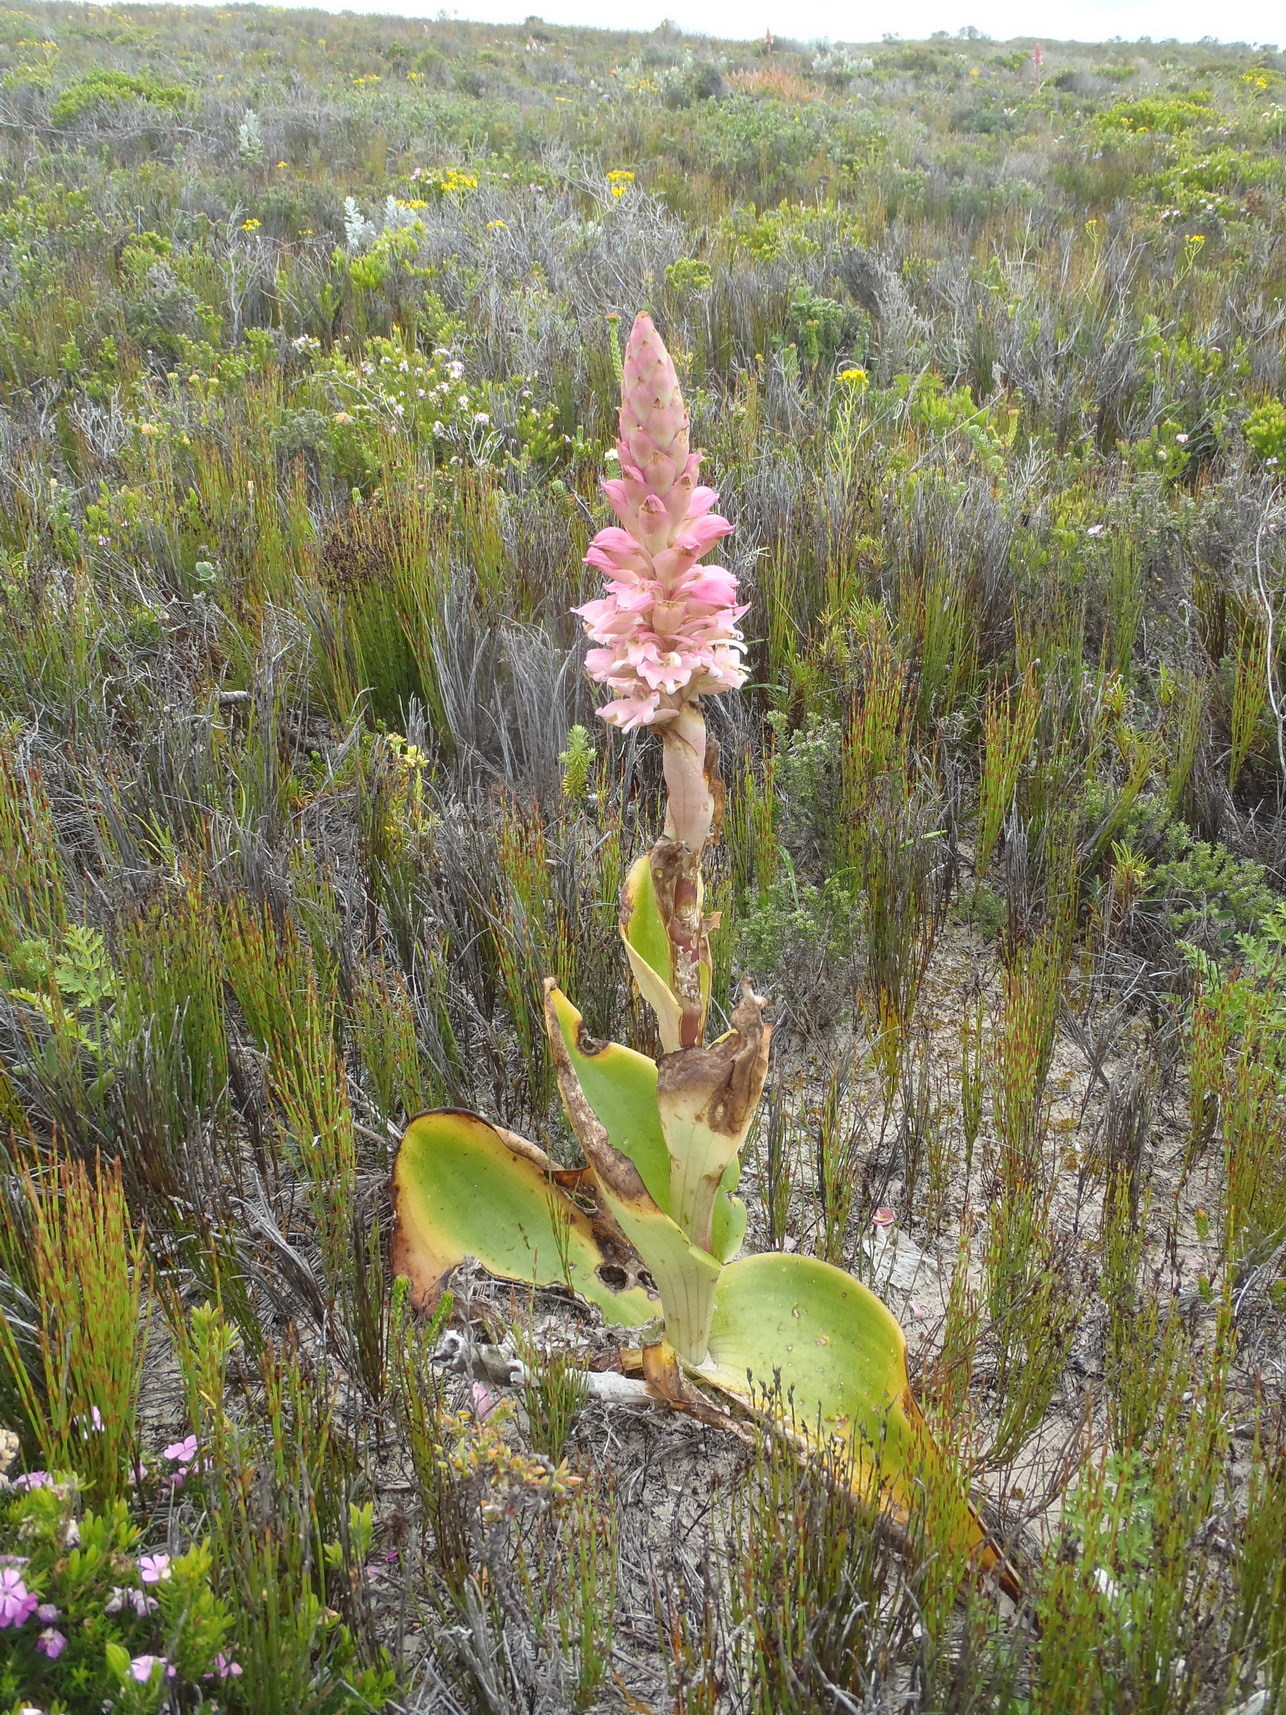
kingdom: Plantae
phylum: Tracheophyta
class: Liliopsida
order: Asparagales
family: Orchidaceae
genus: Satyrium
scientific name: Satyrium carneum
